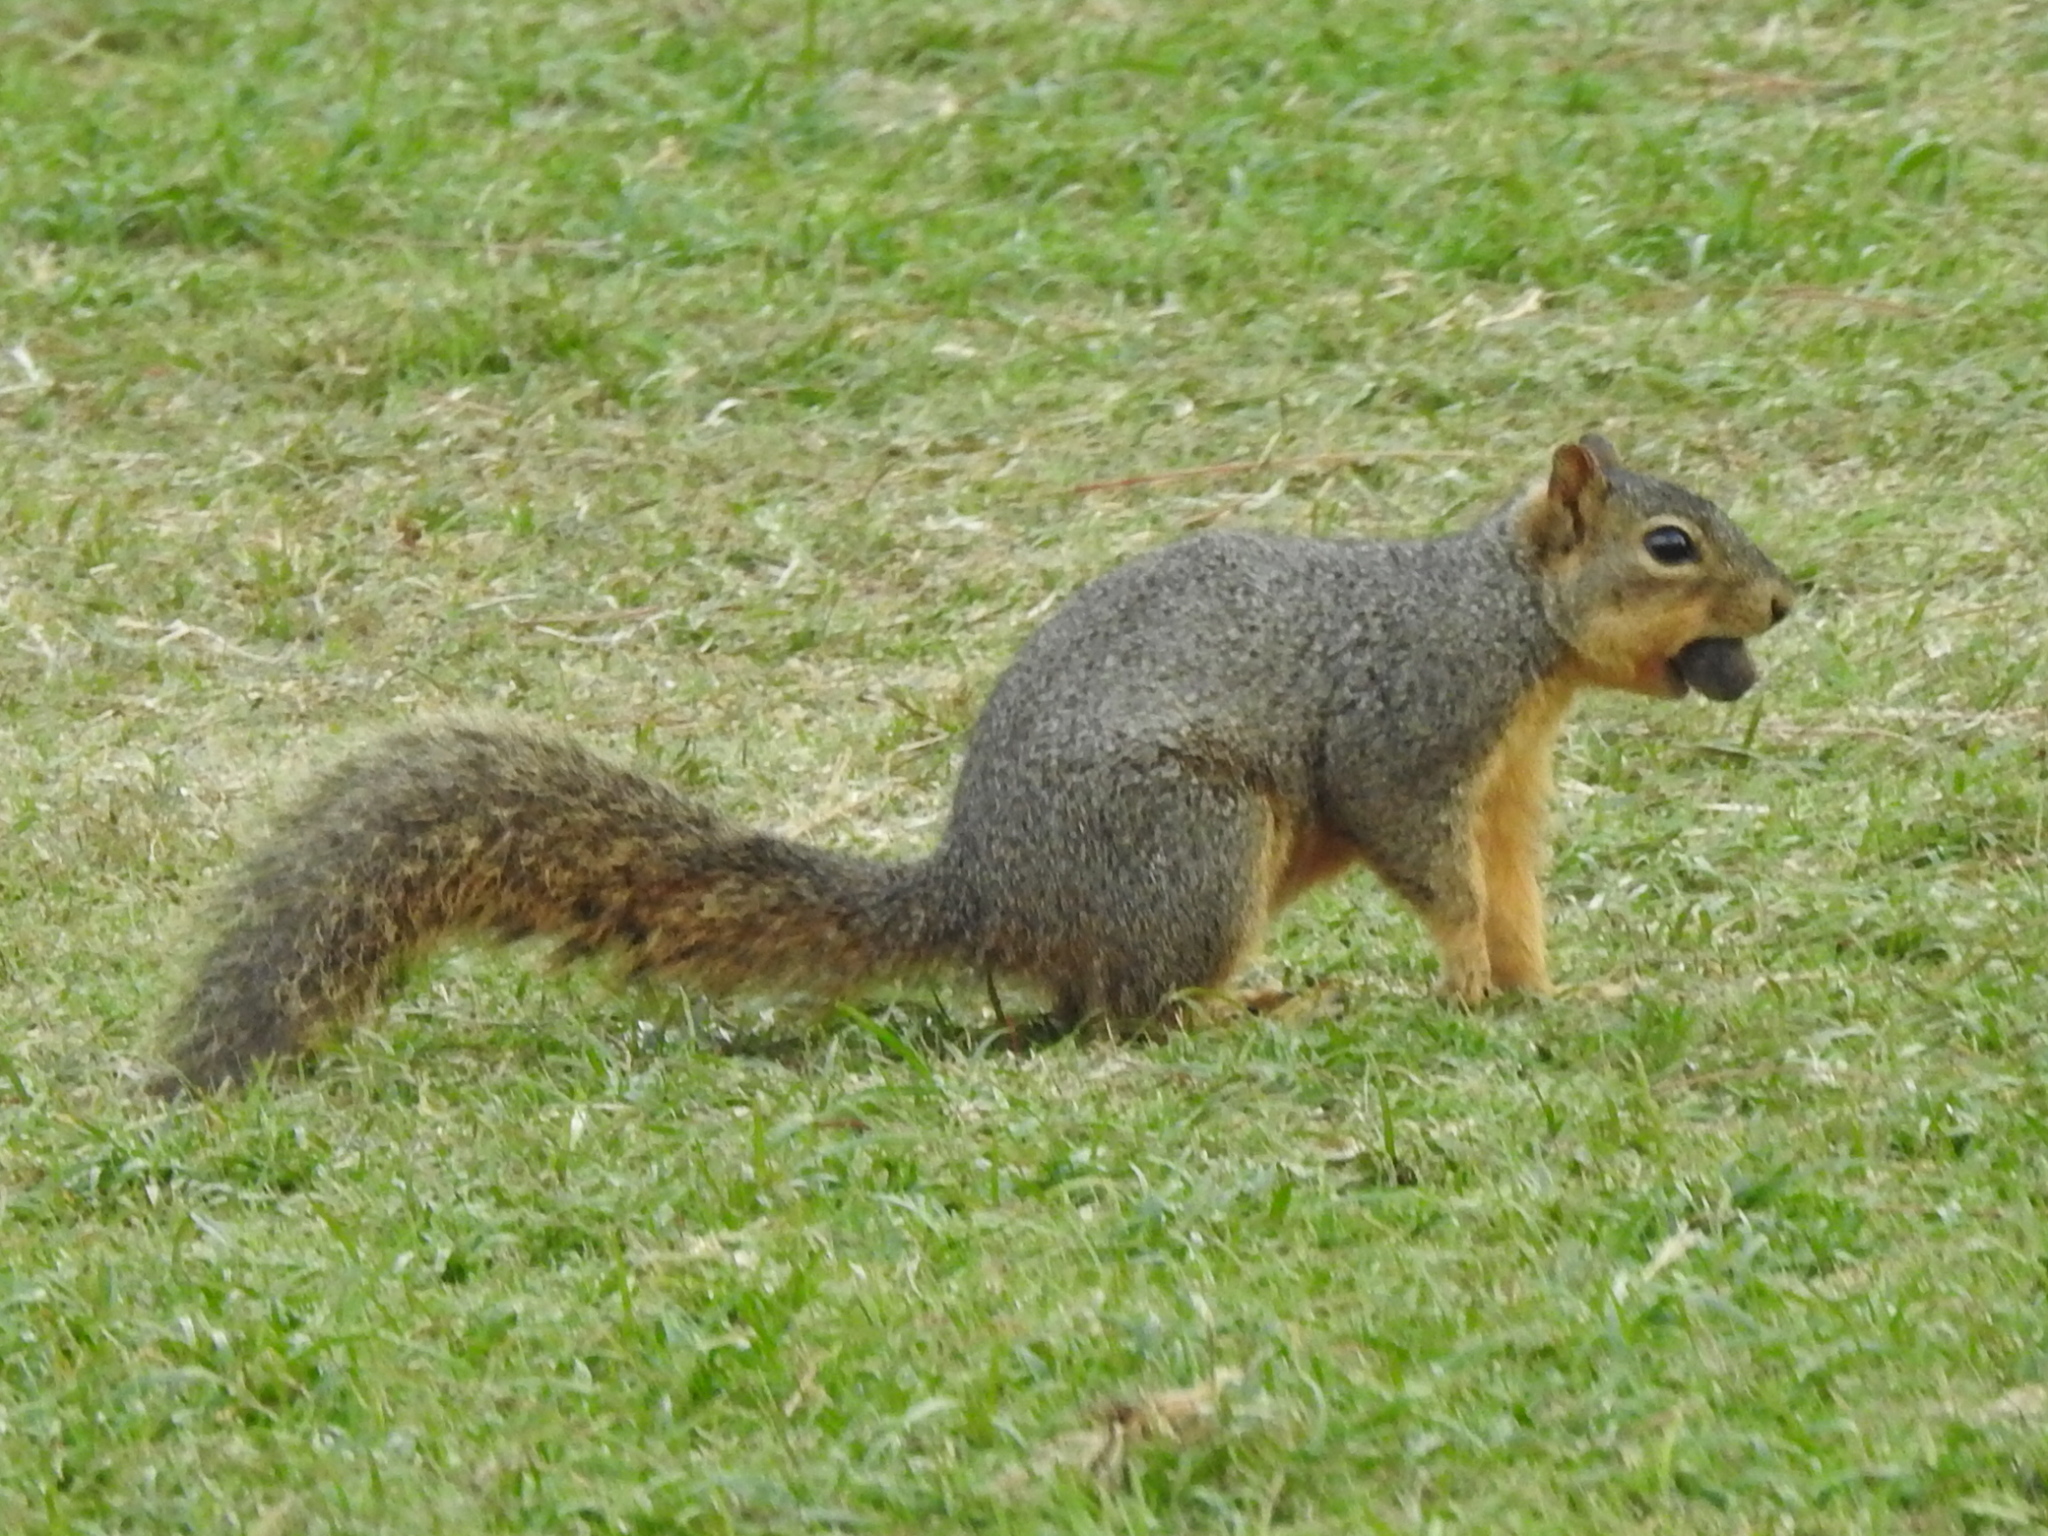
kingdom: Animalia
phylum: Chordata
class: Mammalia
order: Rodentia
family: Sciuridae
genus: Sciurus
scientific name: Sciurus niger
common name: Fox squirrel
